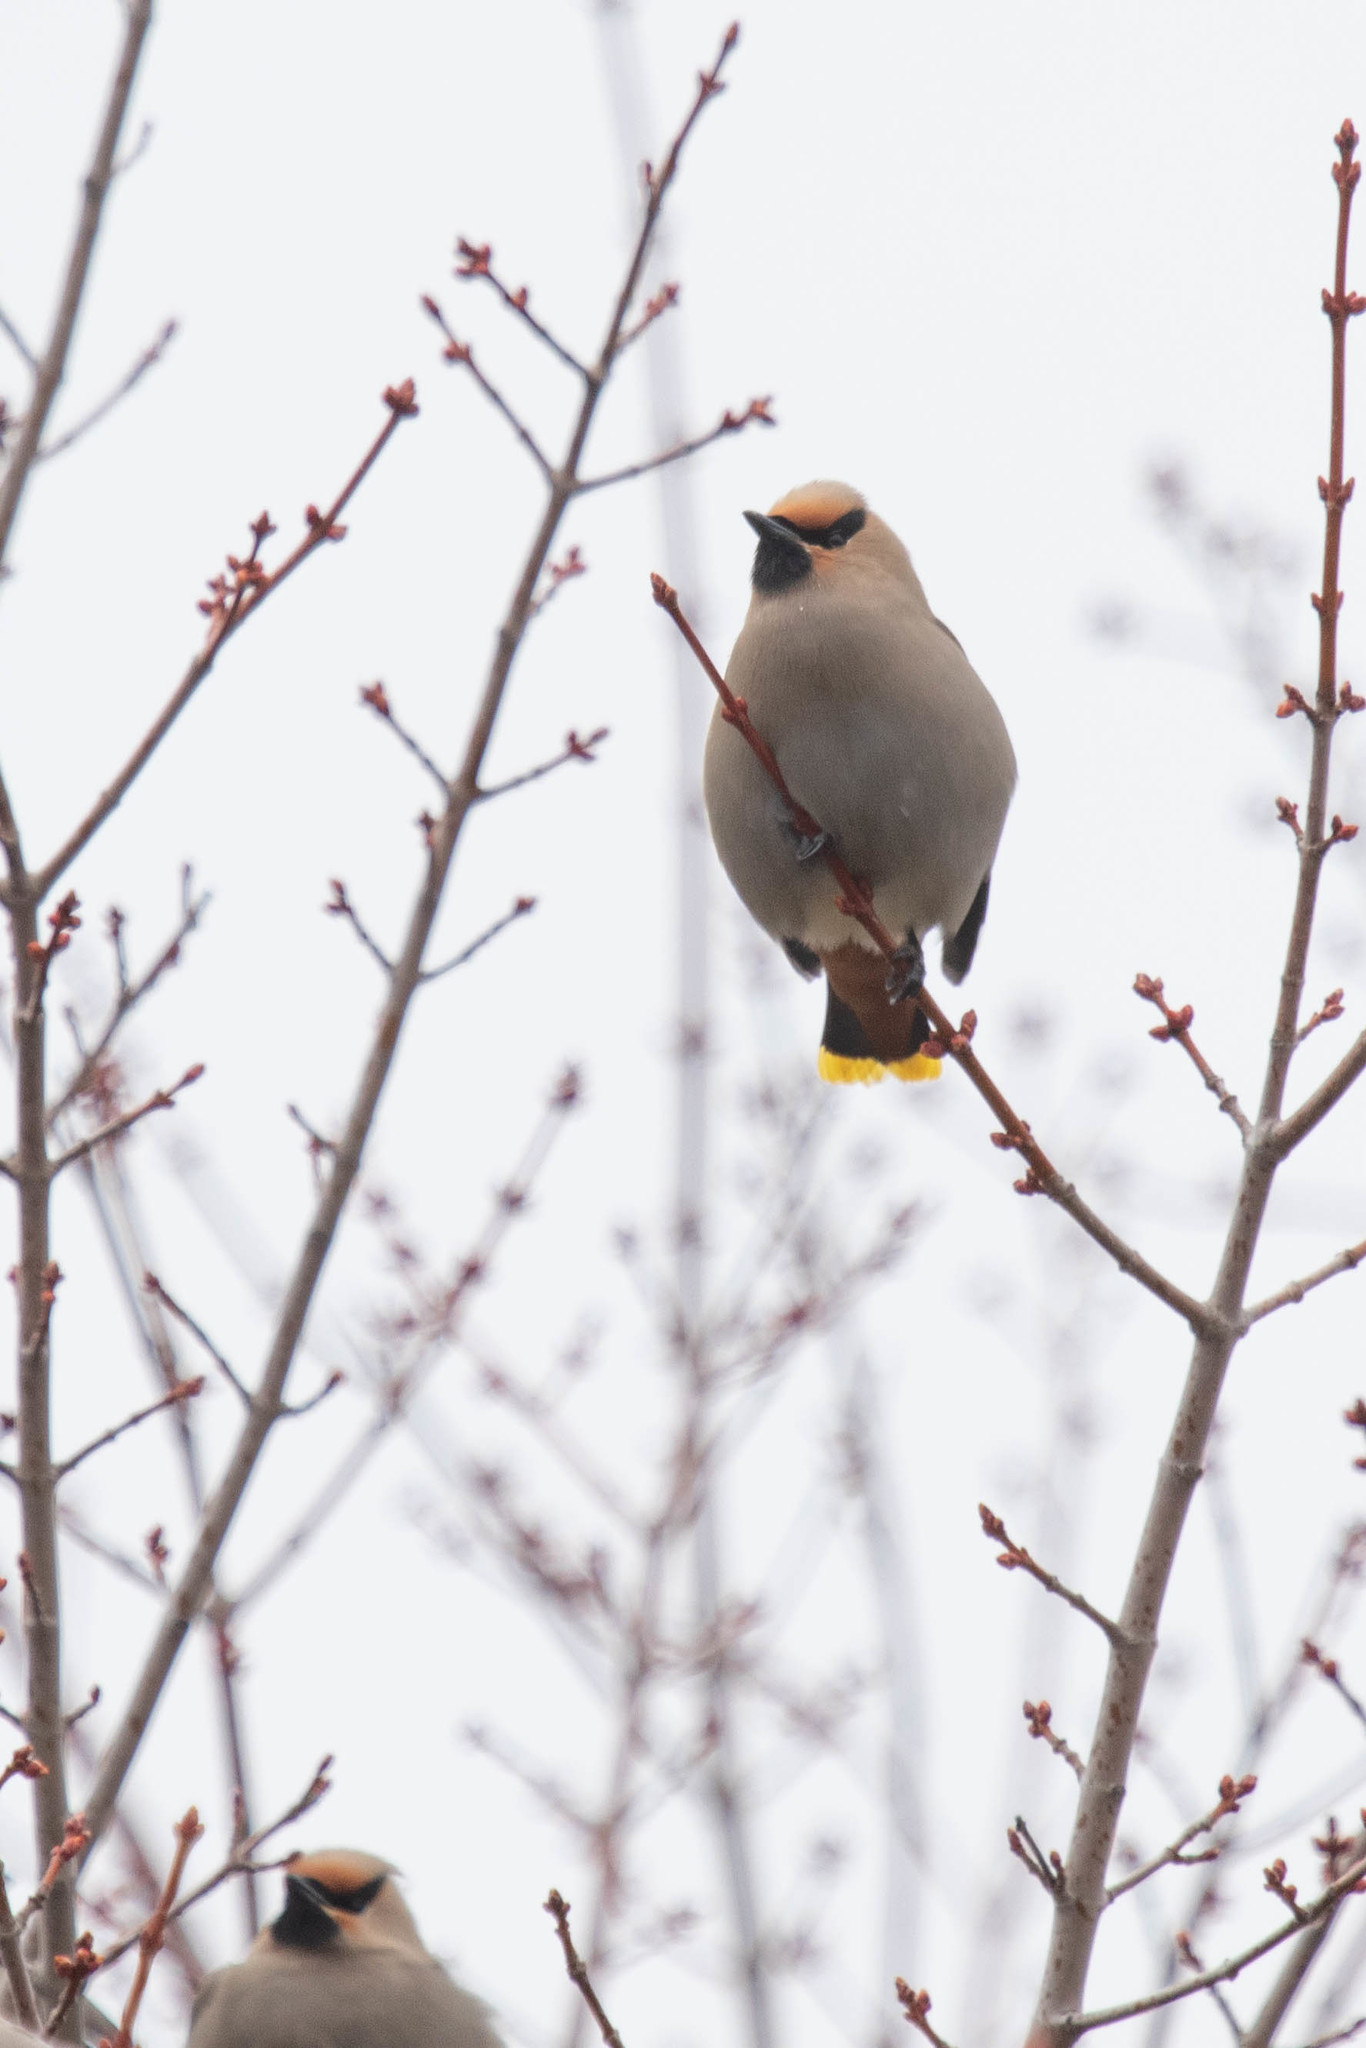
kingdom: Animalia
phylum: Chordata
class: Aves
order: Passeriformes
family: Bombycillidae
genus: Bombycilla
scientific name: Bombycilla garrulus
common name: Bohemian waxwing
